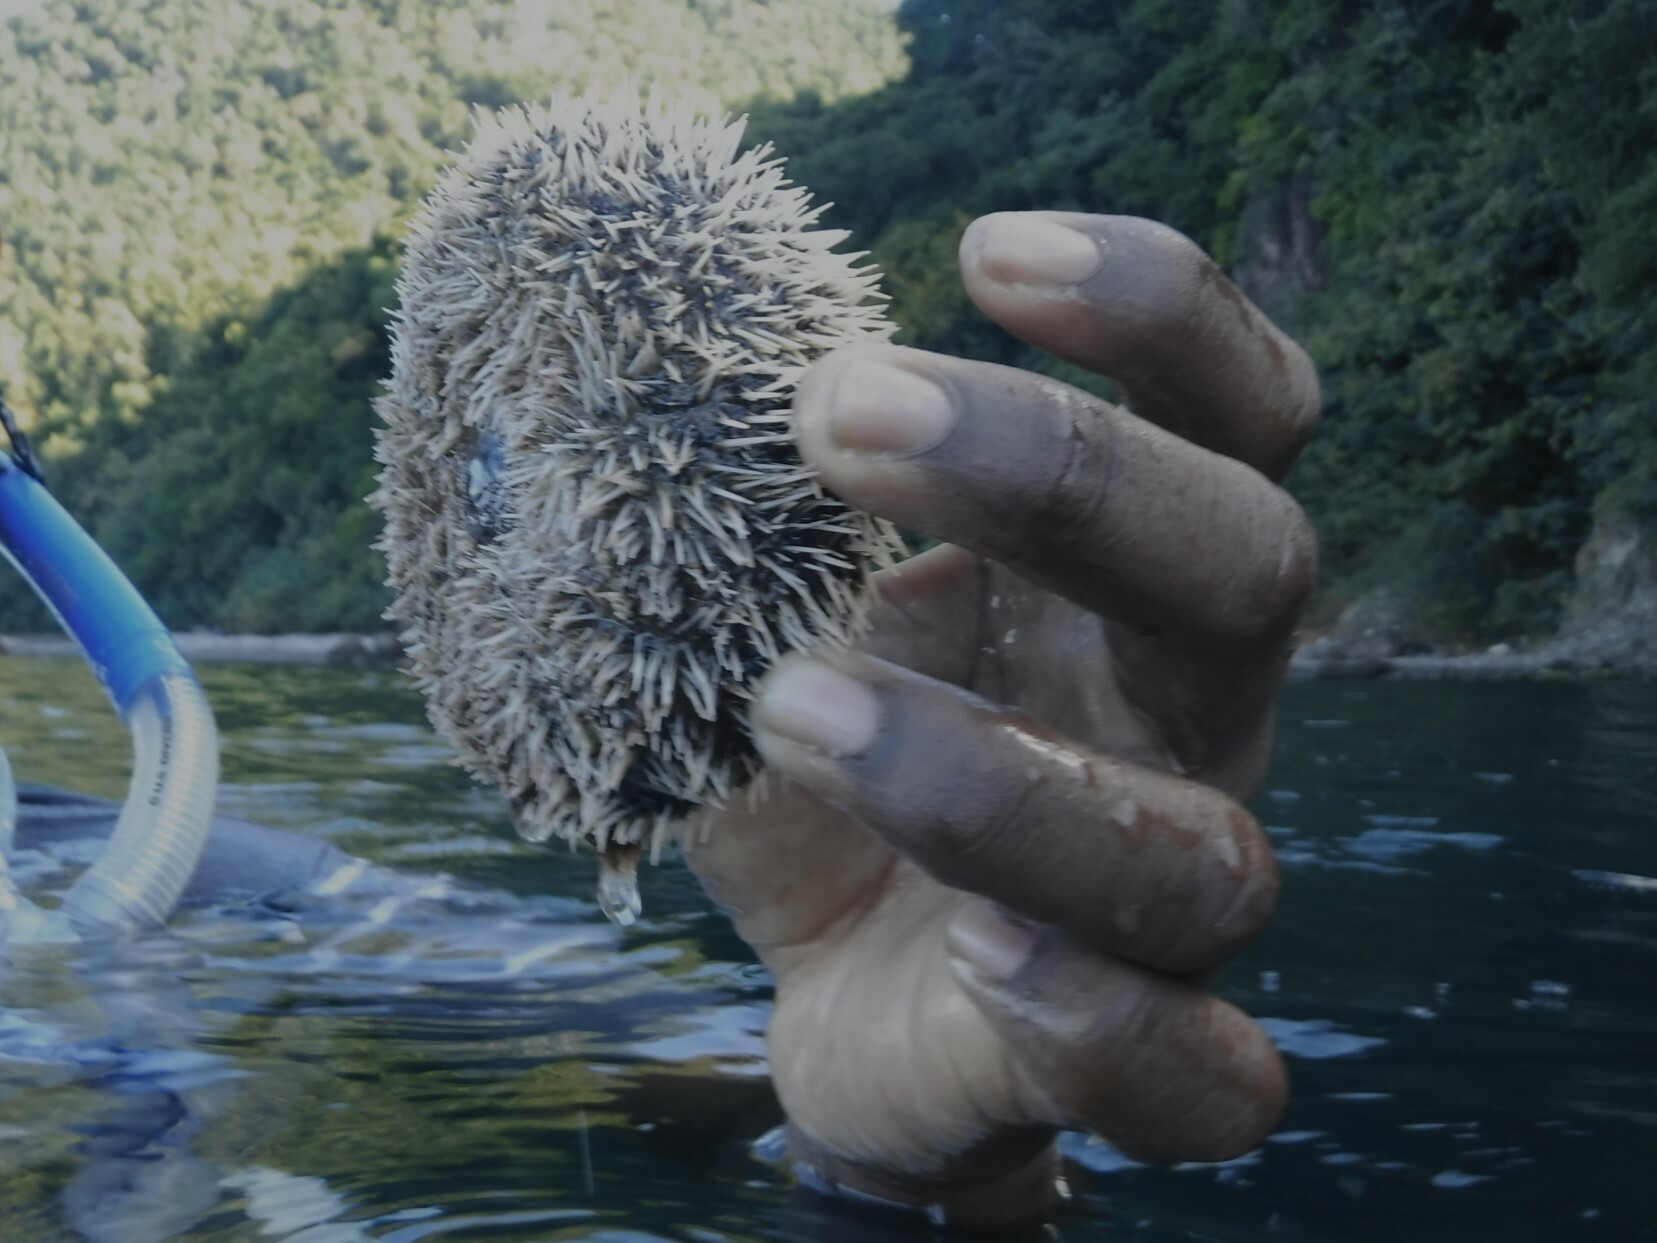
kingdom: Animalia
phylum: Echinodermata
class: Echinoidea
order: Camarodonta
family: Toxopneustidae
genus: Tripneustes
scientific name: Tripneustes ventricosus
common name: West indian sea egg
